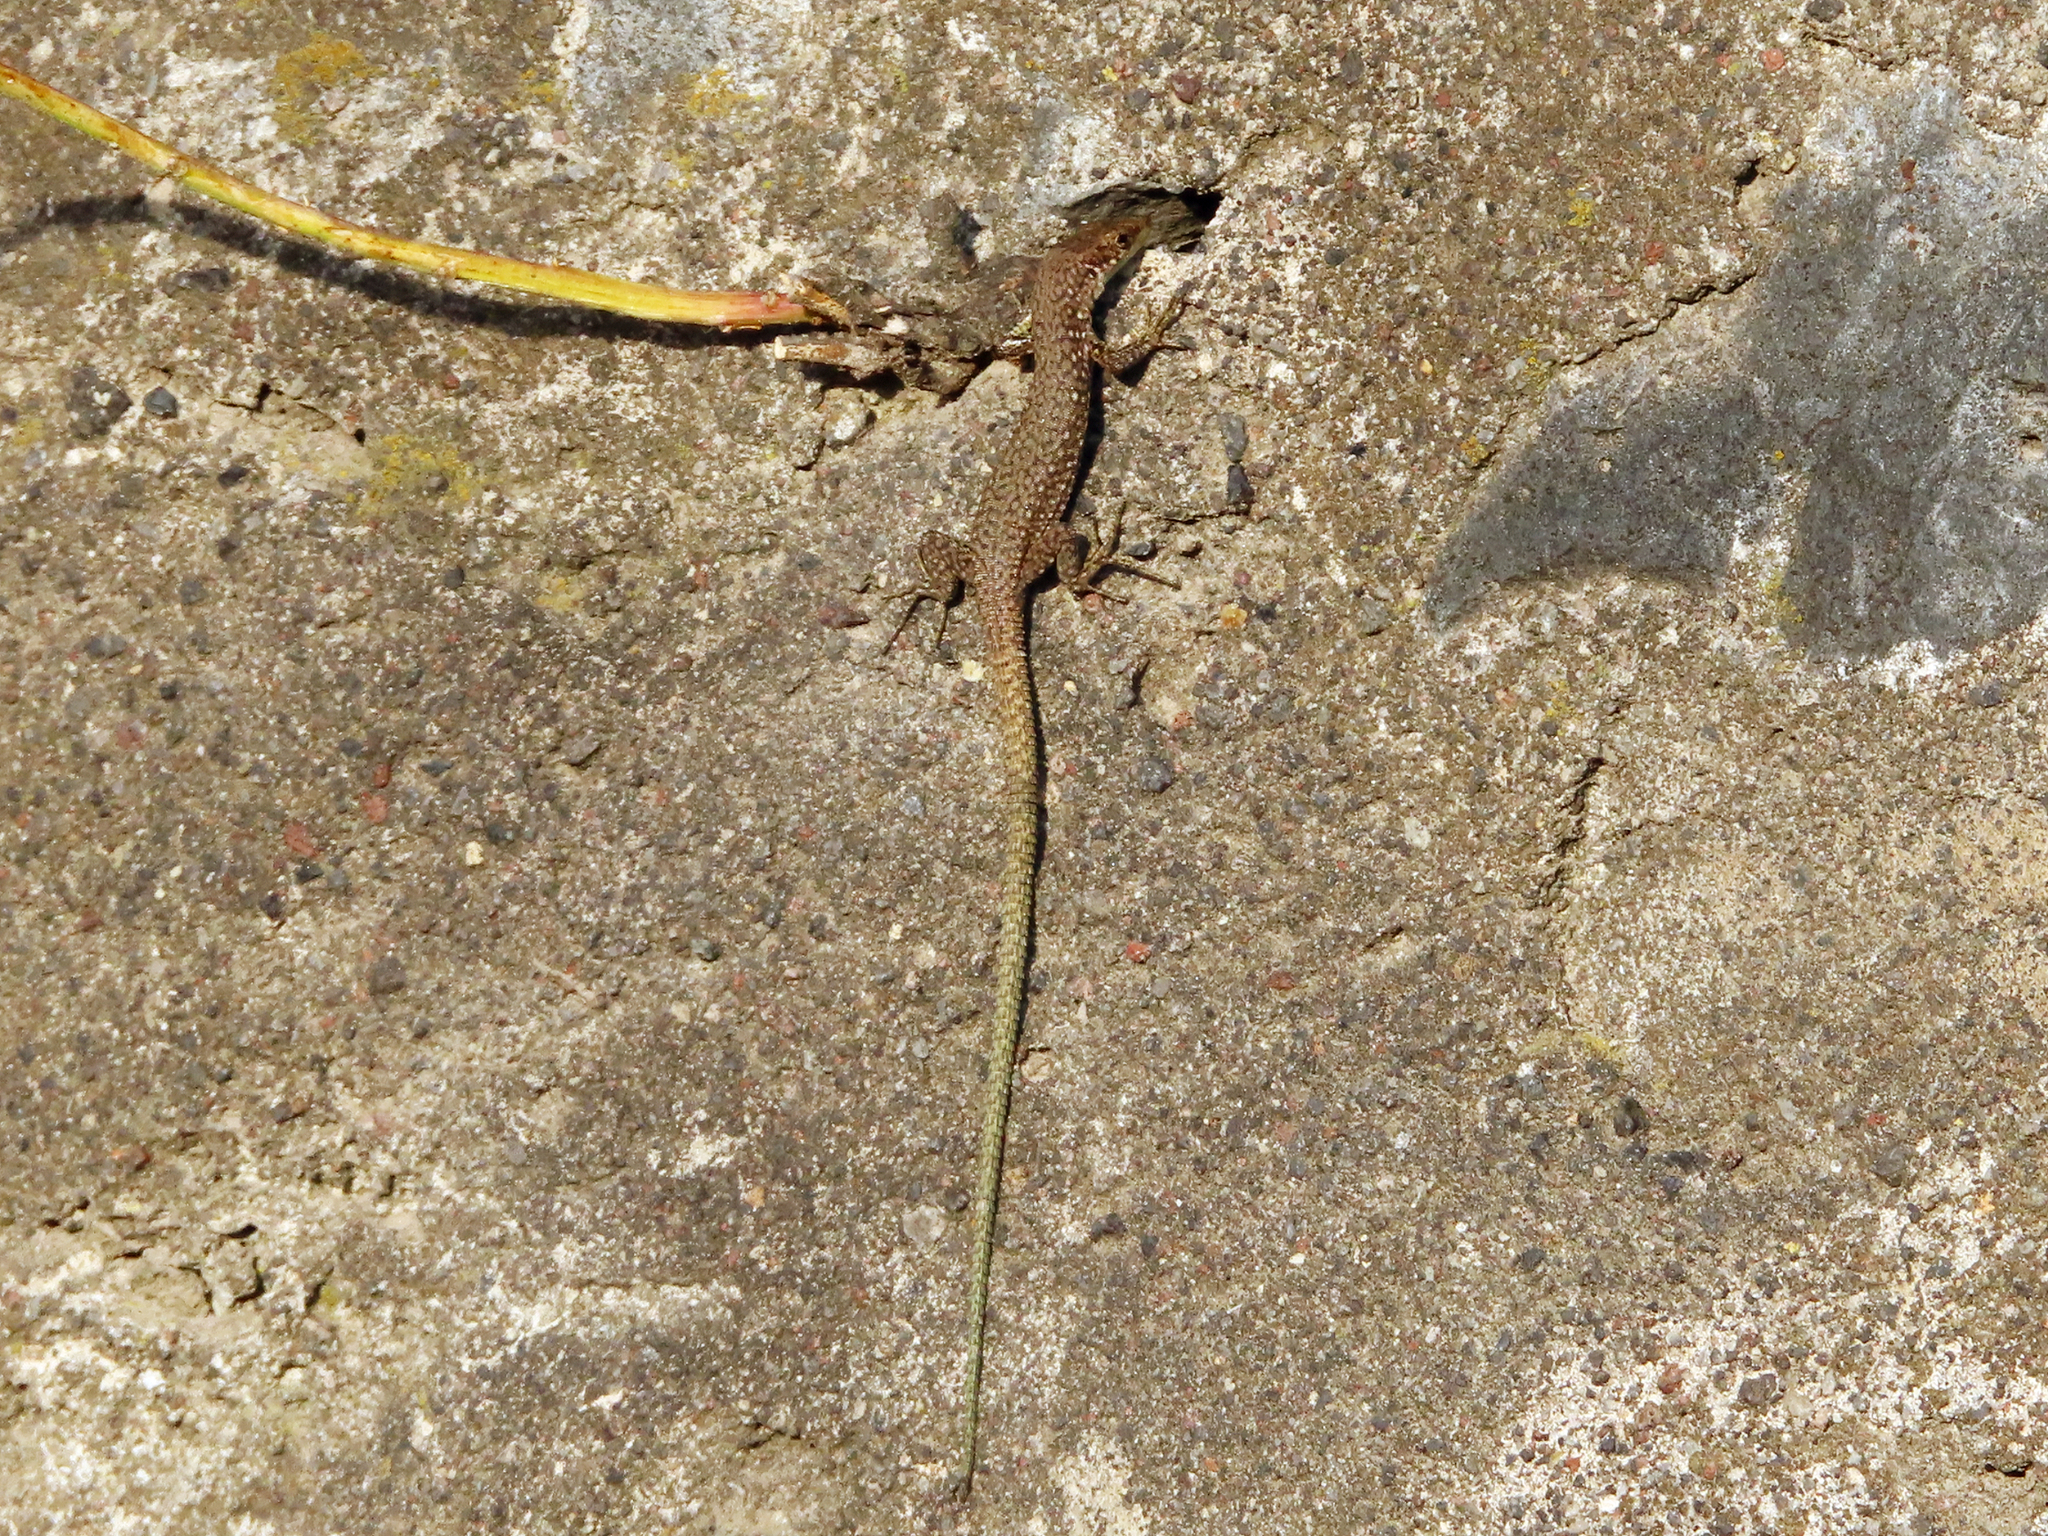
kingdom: Animalia
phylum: Chordata
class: Squamata
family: Lacertidae
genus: Darevskia
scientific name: Darevskia
